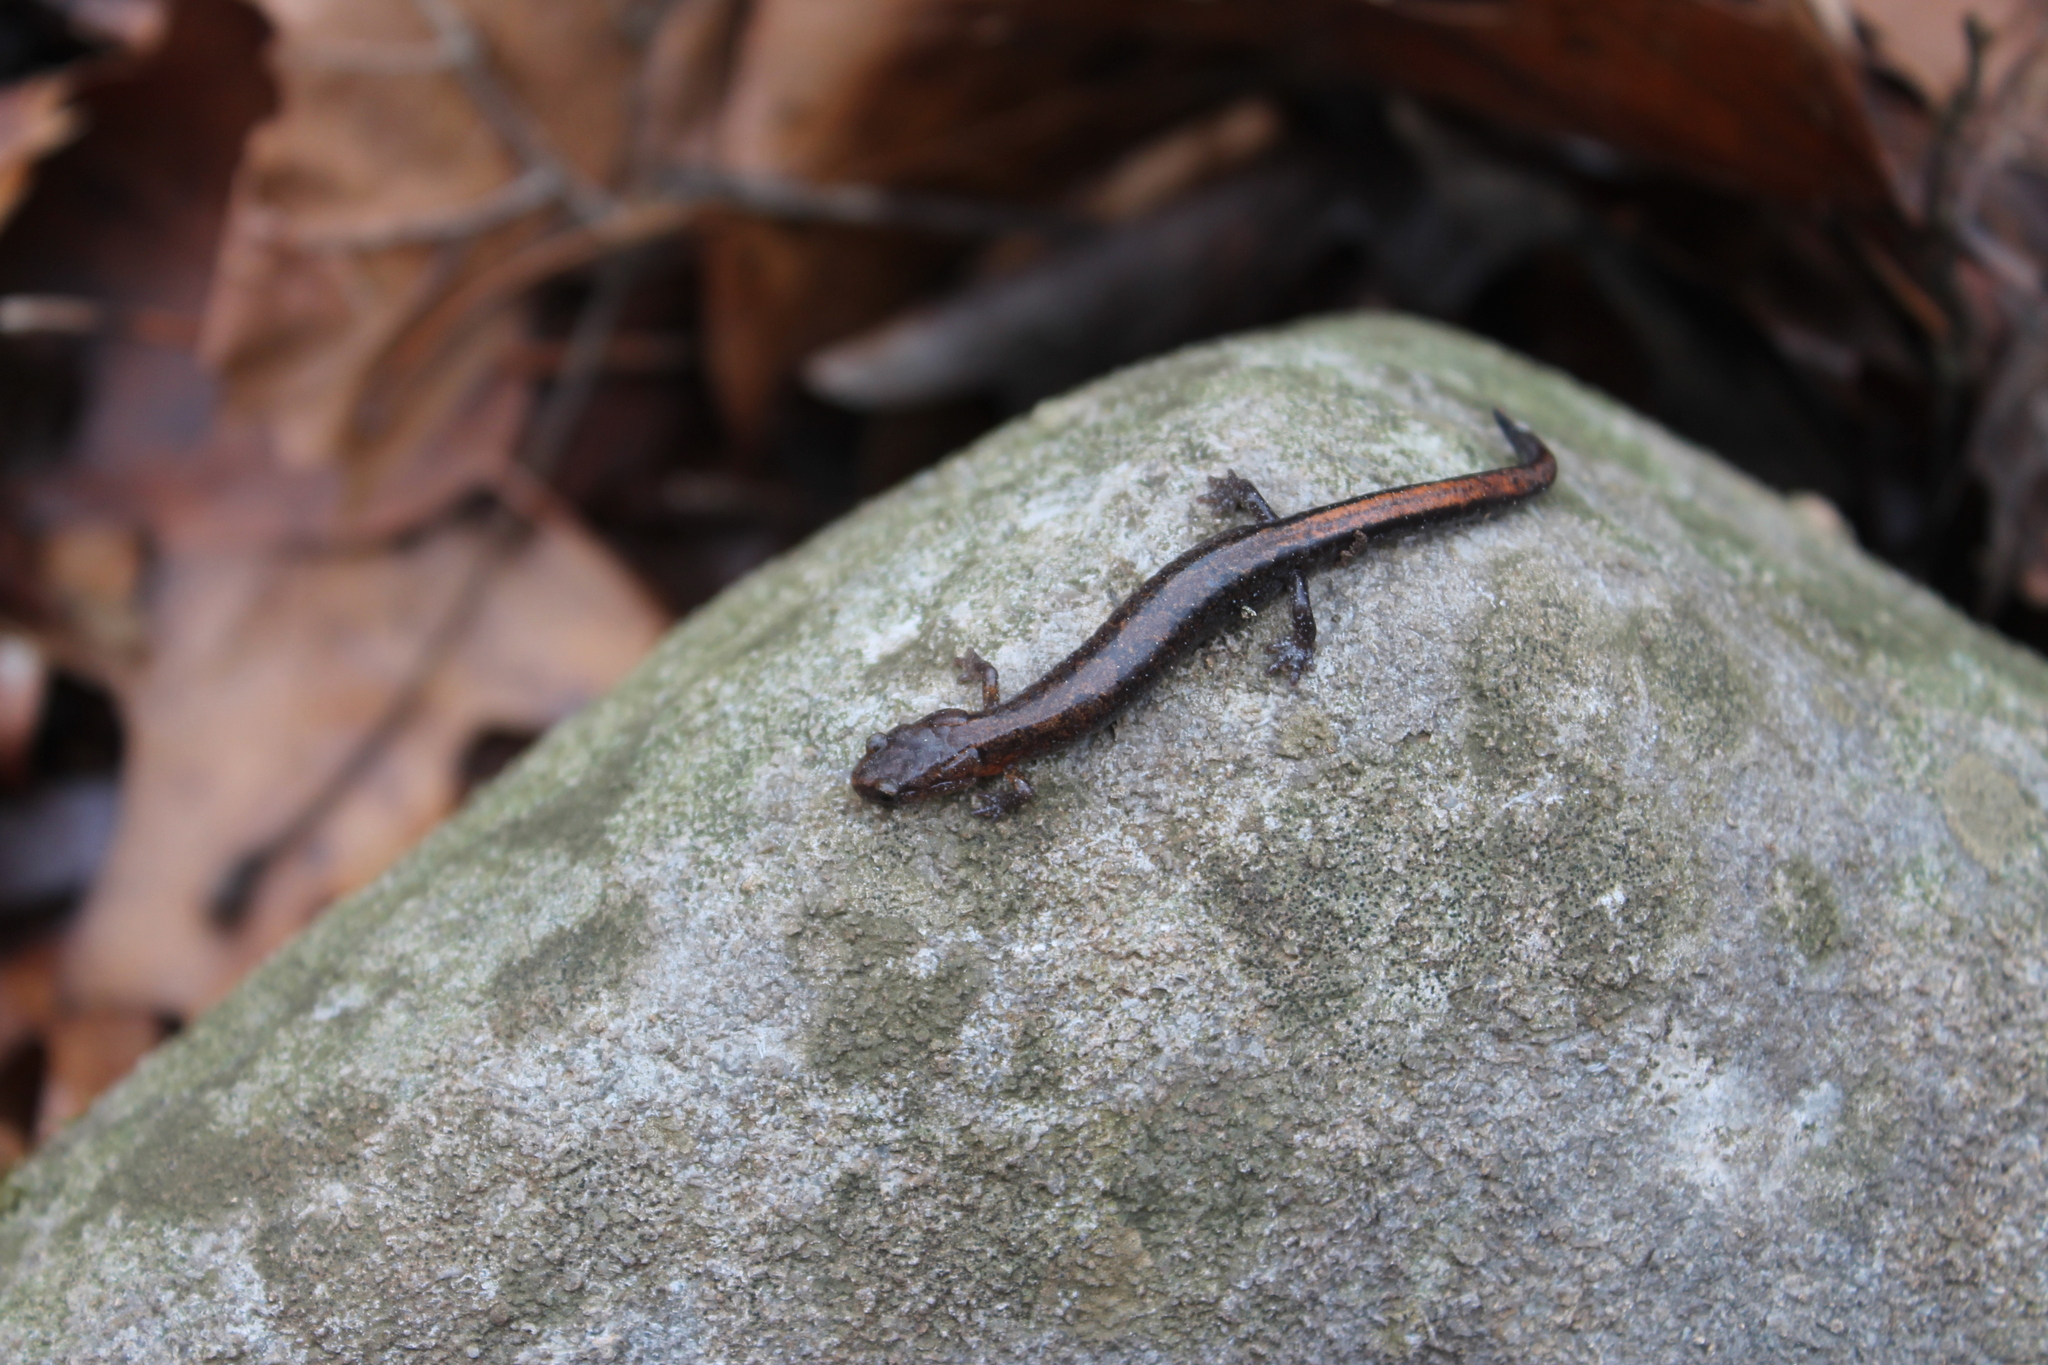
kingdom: Animalia
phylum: Chordata
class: Amphibia
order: Caudata
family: Plethodontidae
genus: Plethodon
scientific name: Plethodon dorsalis
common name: Northern zigzag salamander
